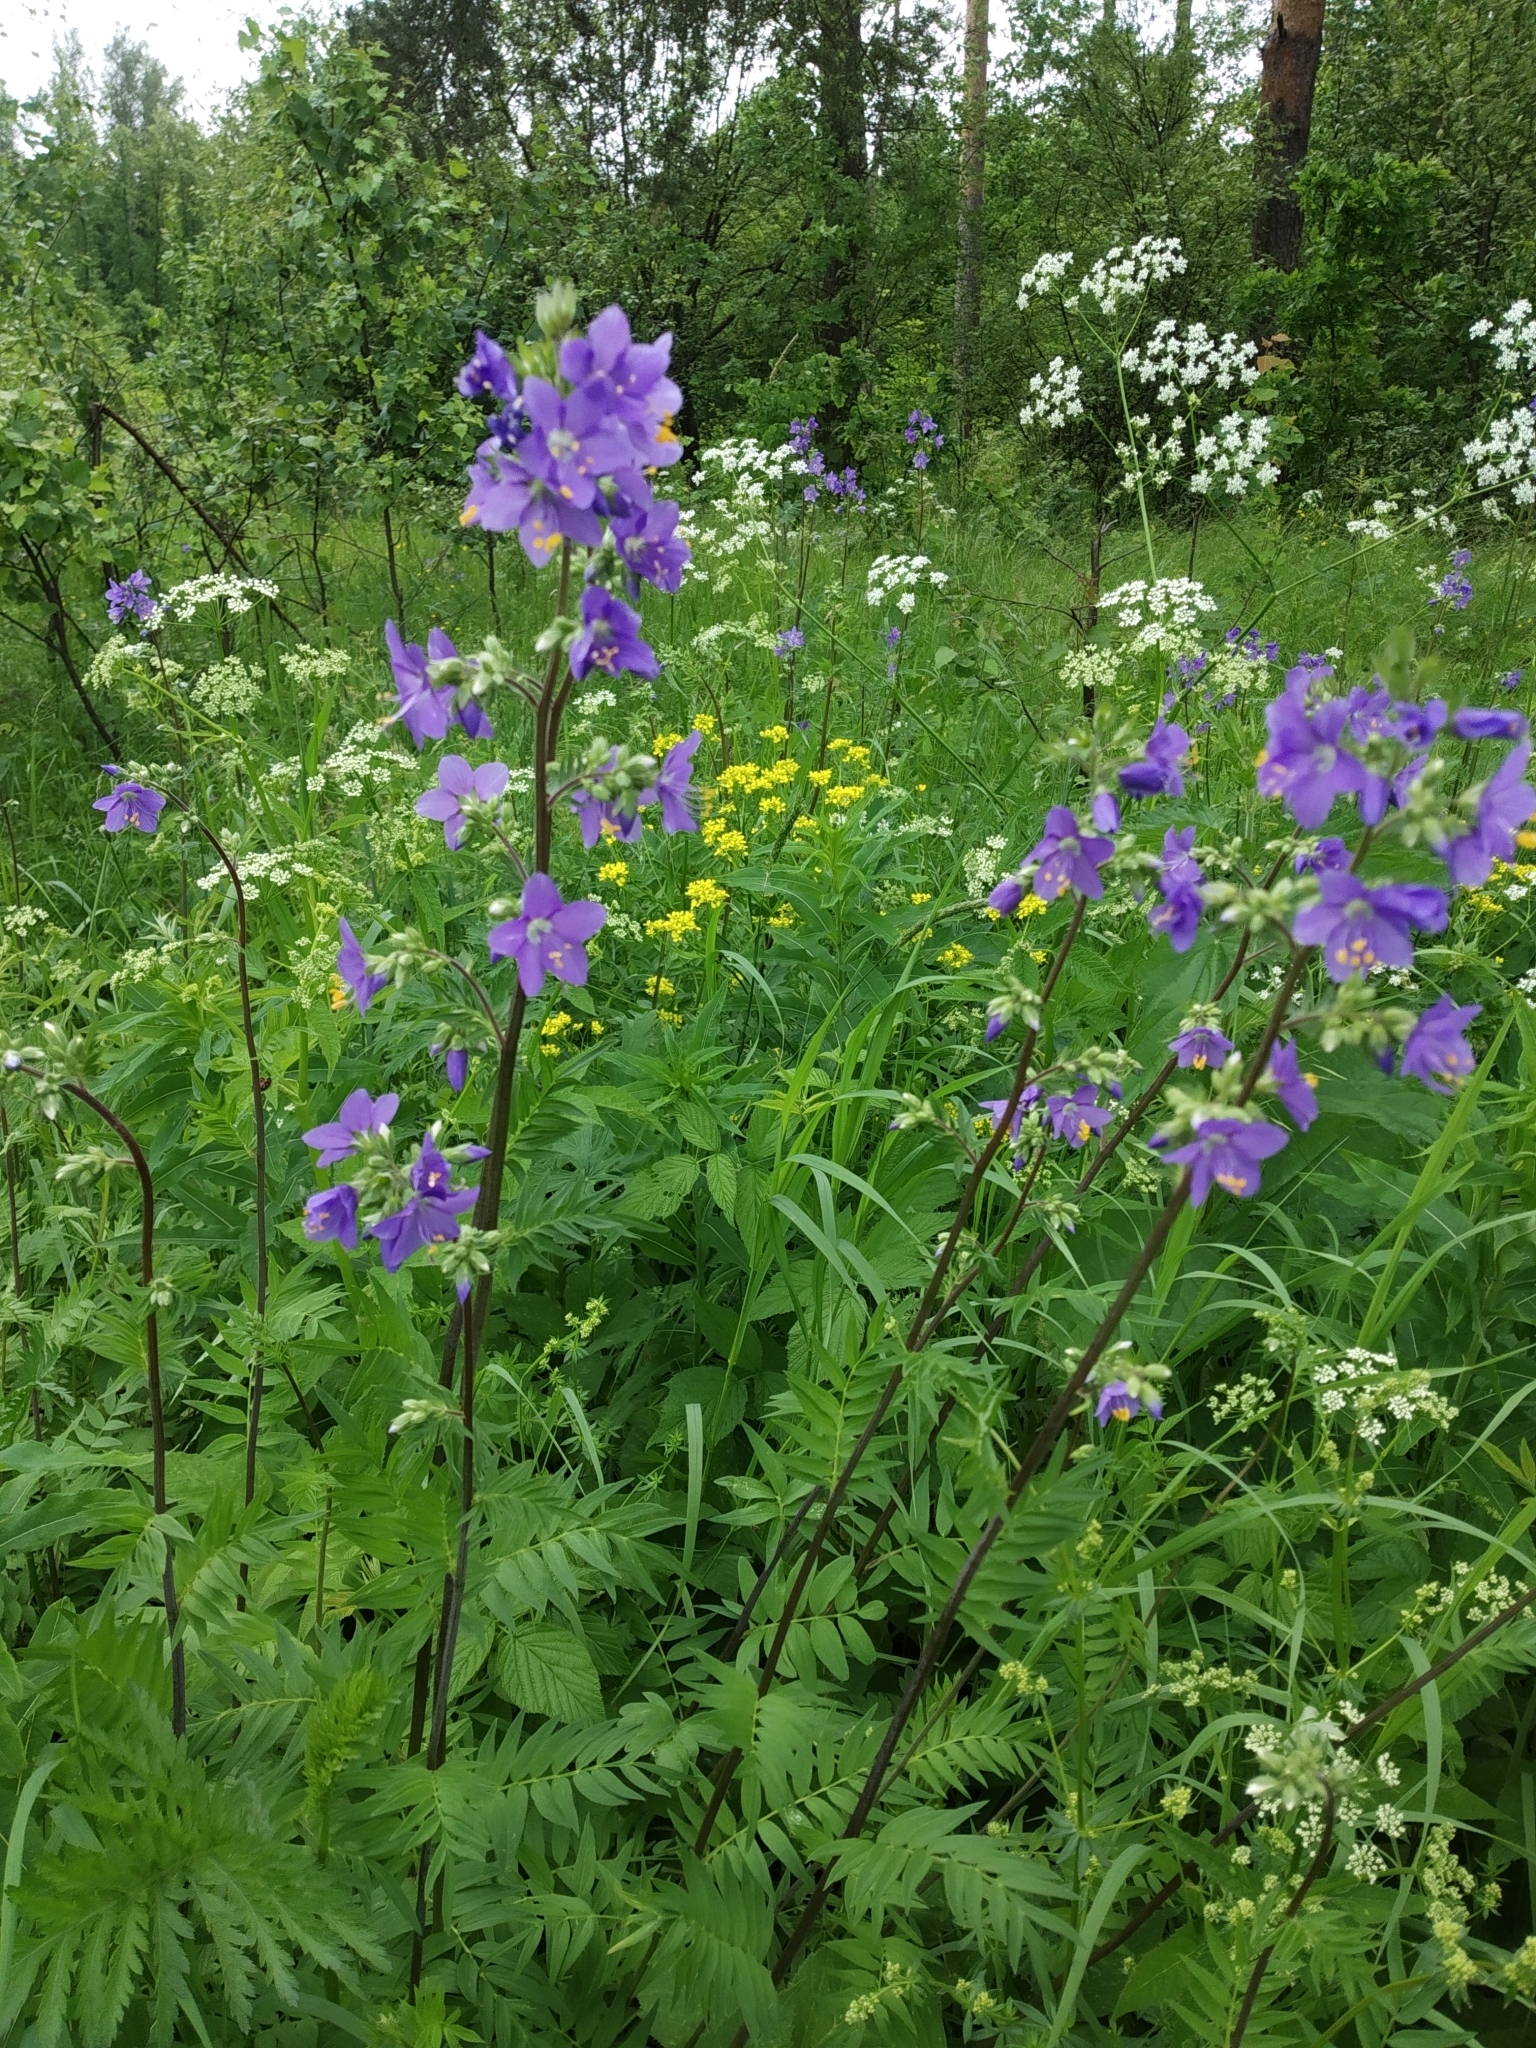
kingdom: Plantae
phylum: Tracheophyta
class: Magnoliopsida
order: Ericales
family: Polemoniaceae
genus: Polemonium
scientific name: Polemonium caeruleum
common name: Jacob's-ladder
